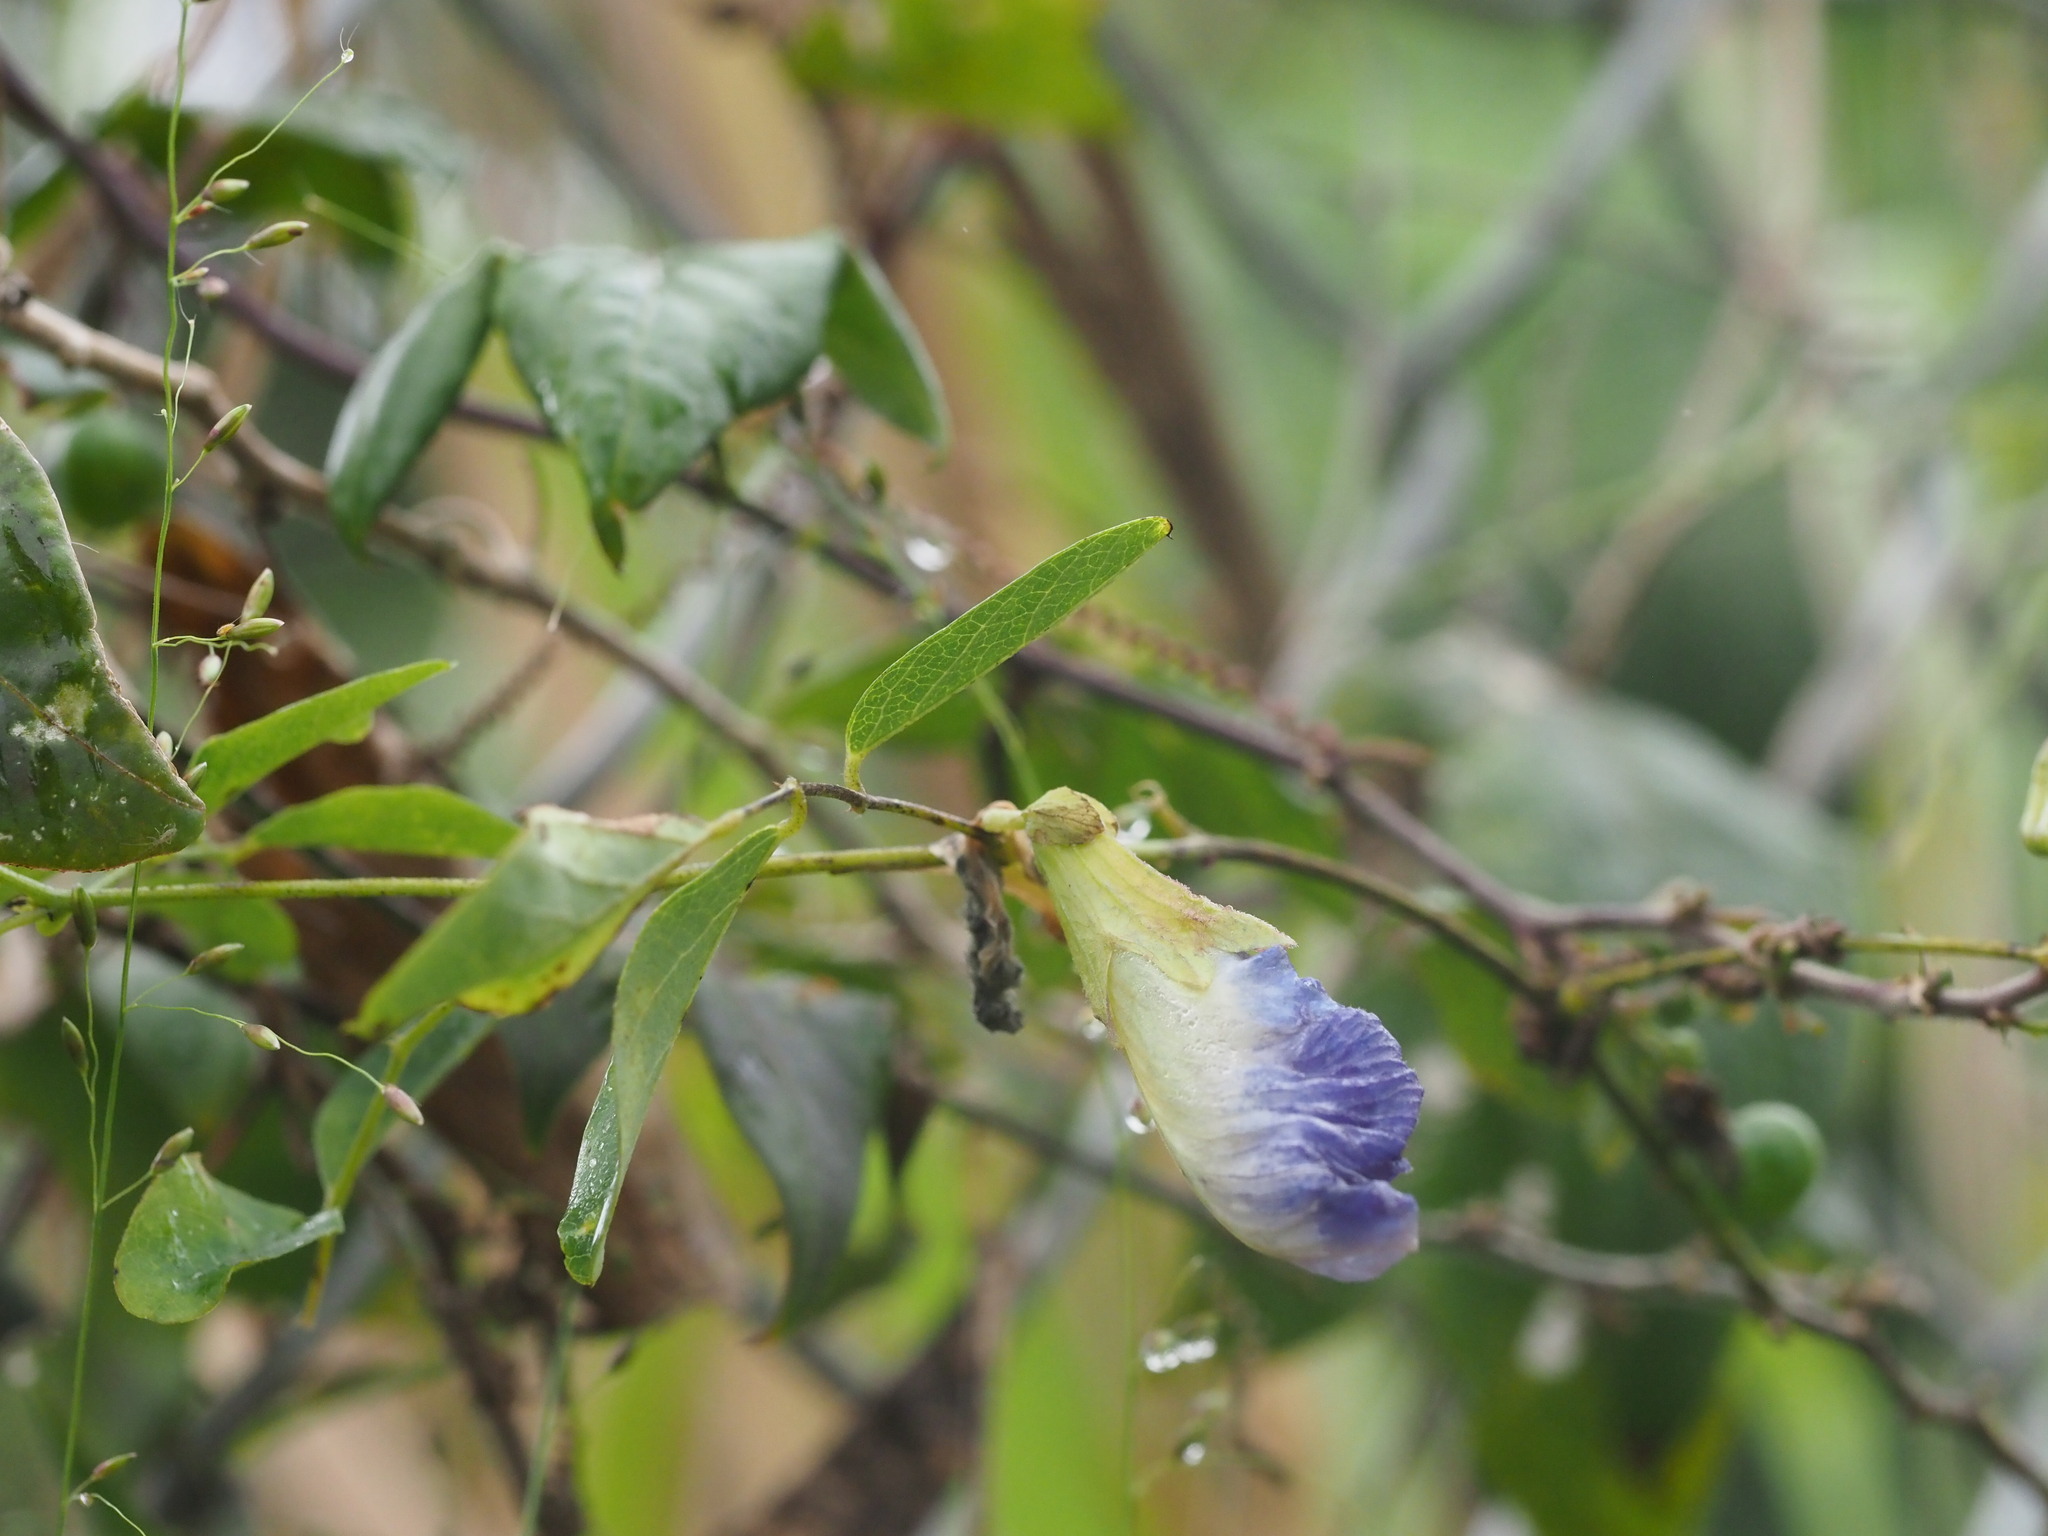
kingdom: Plantae
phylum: Tracheophyta
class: Magnoliopsida
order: Fabales
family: Fabaceae
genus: Clitoria
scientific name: Clitoria ternatea
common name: Asian pigeonwings
